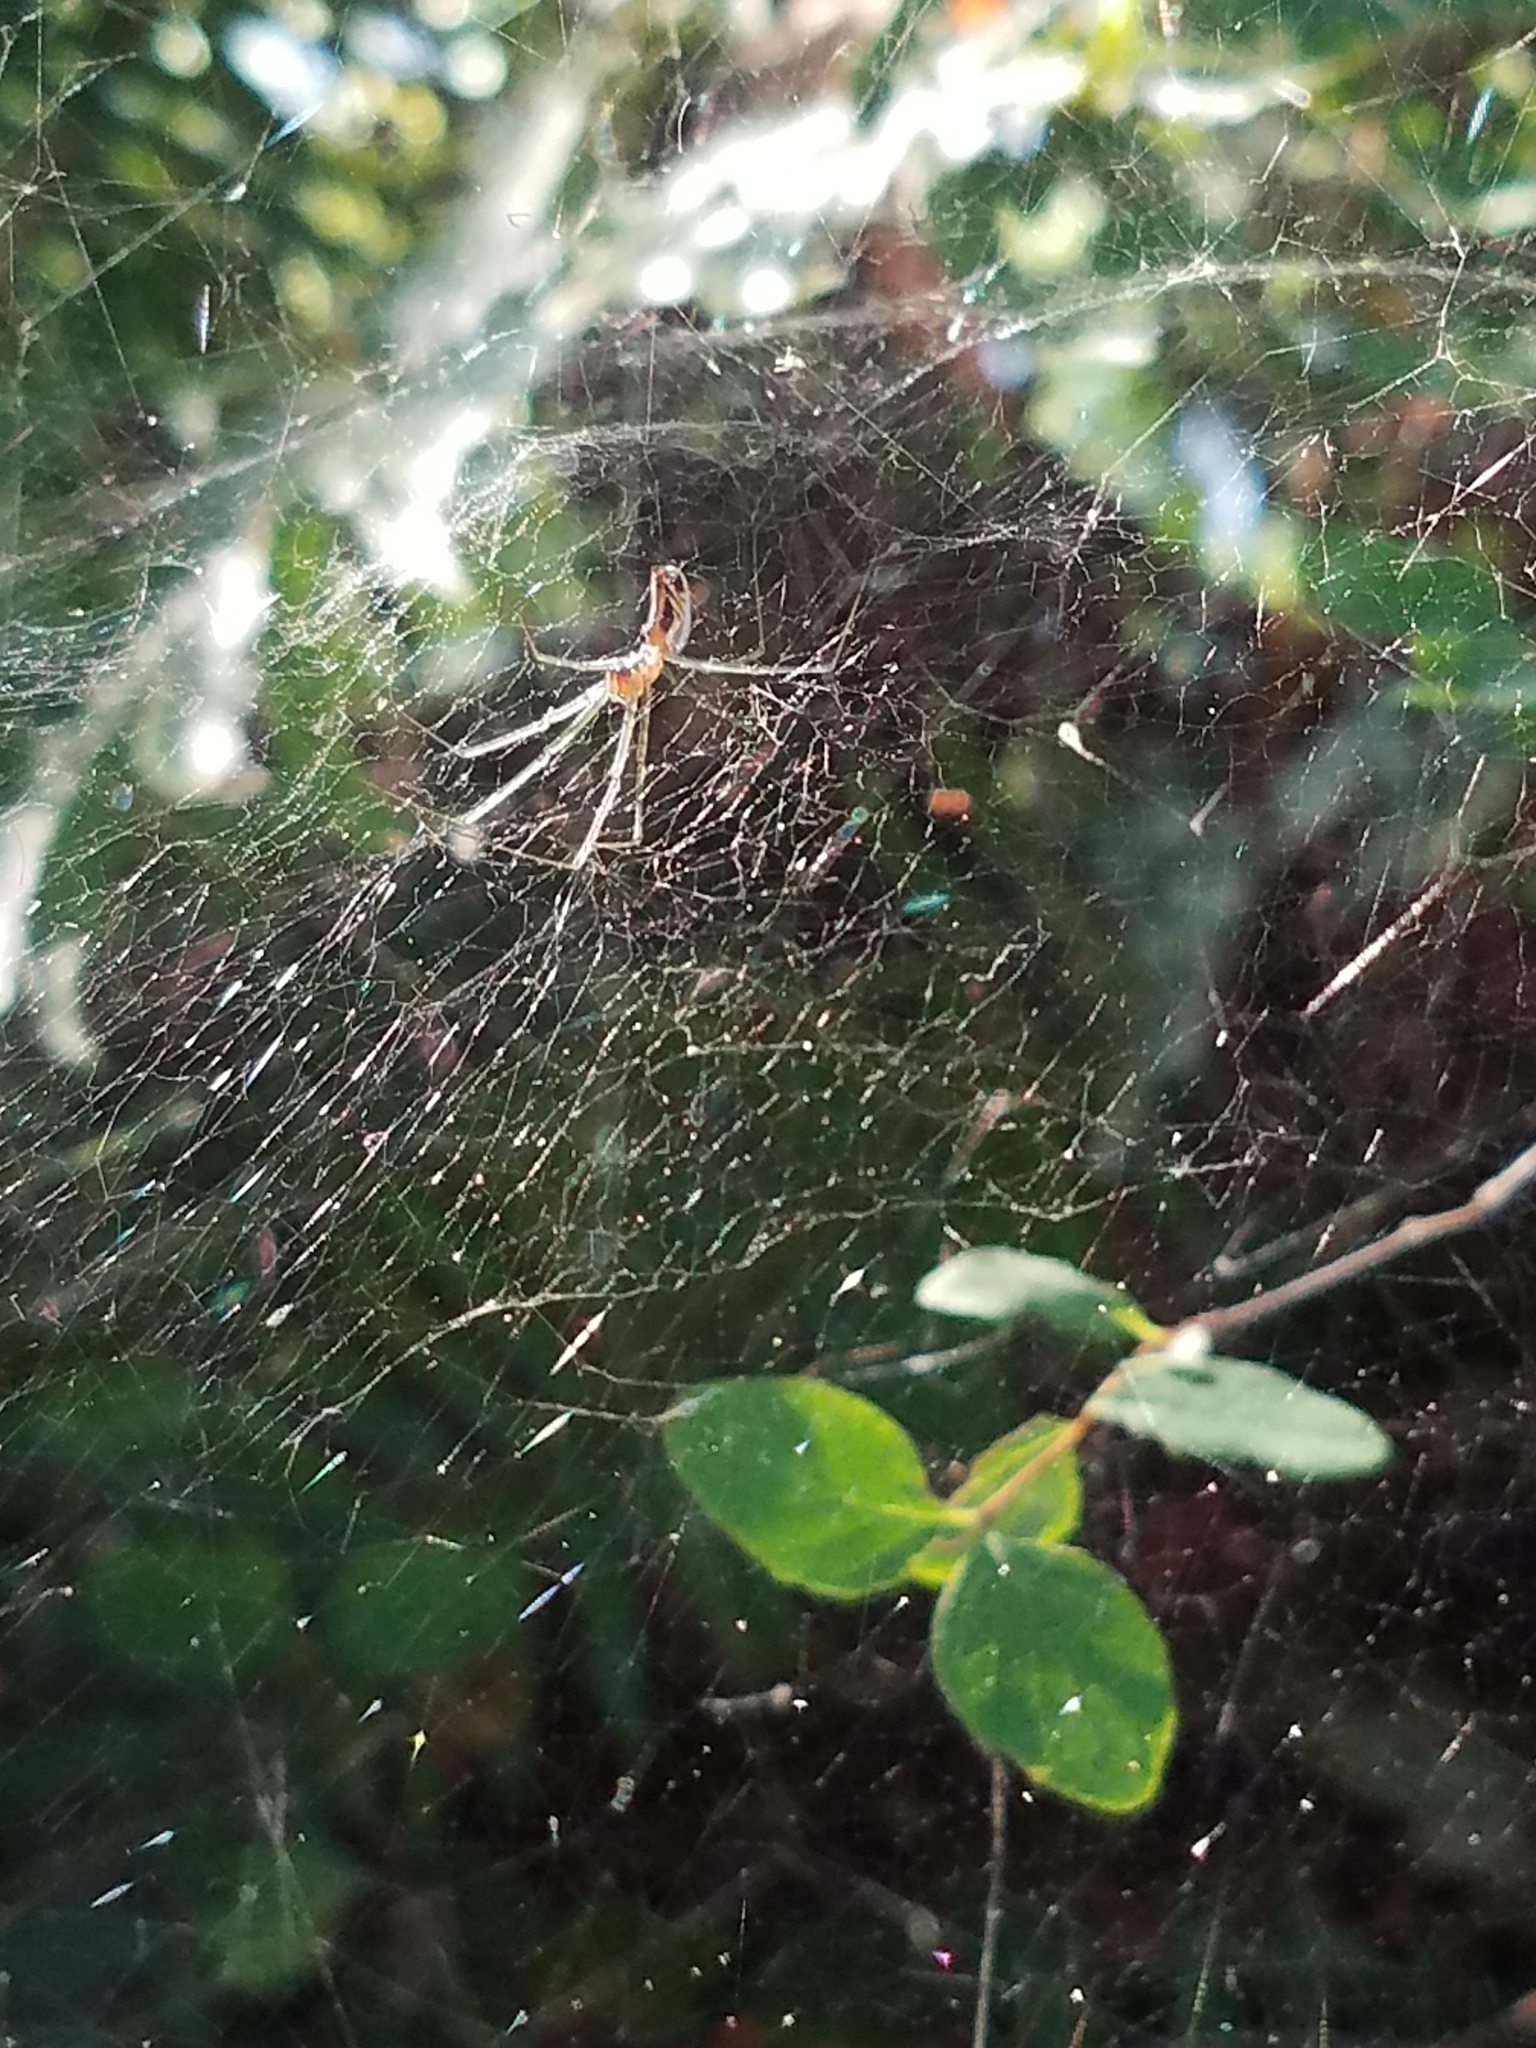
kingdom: Animalia
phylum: Arthropoda
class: Arachnida
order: Araneae
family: Linyphiidae
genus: Neriene
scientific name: Neriene litigiosa
